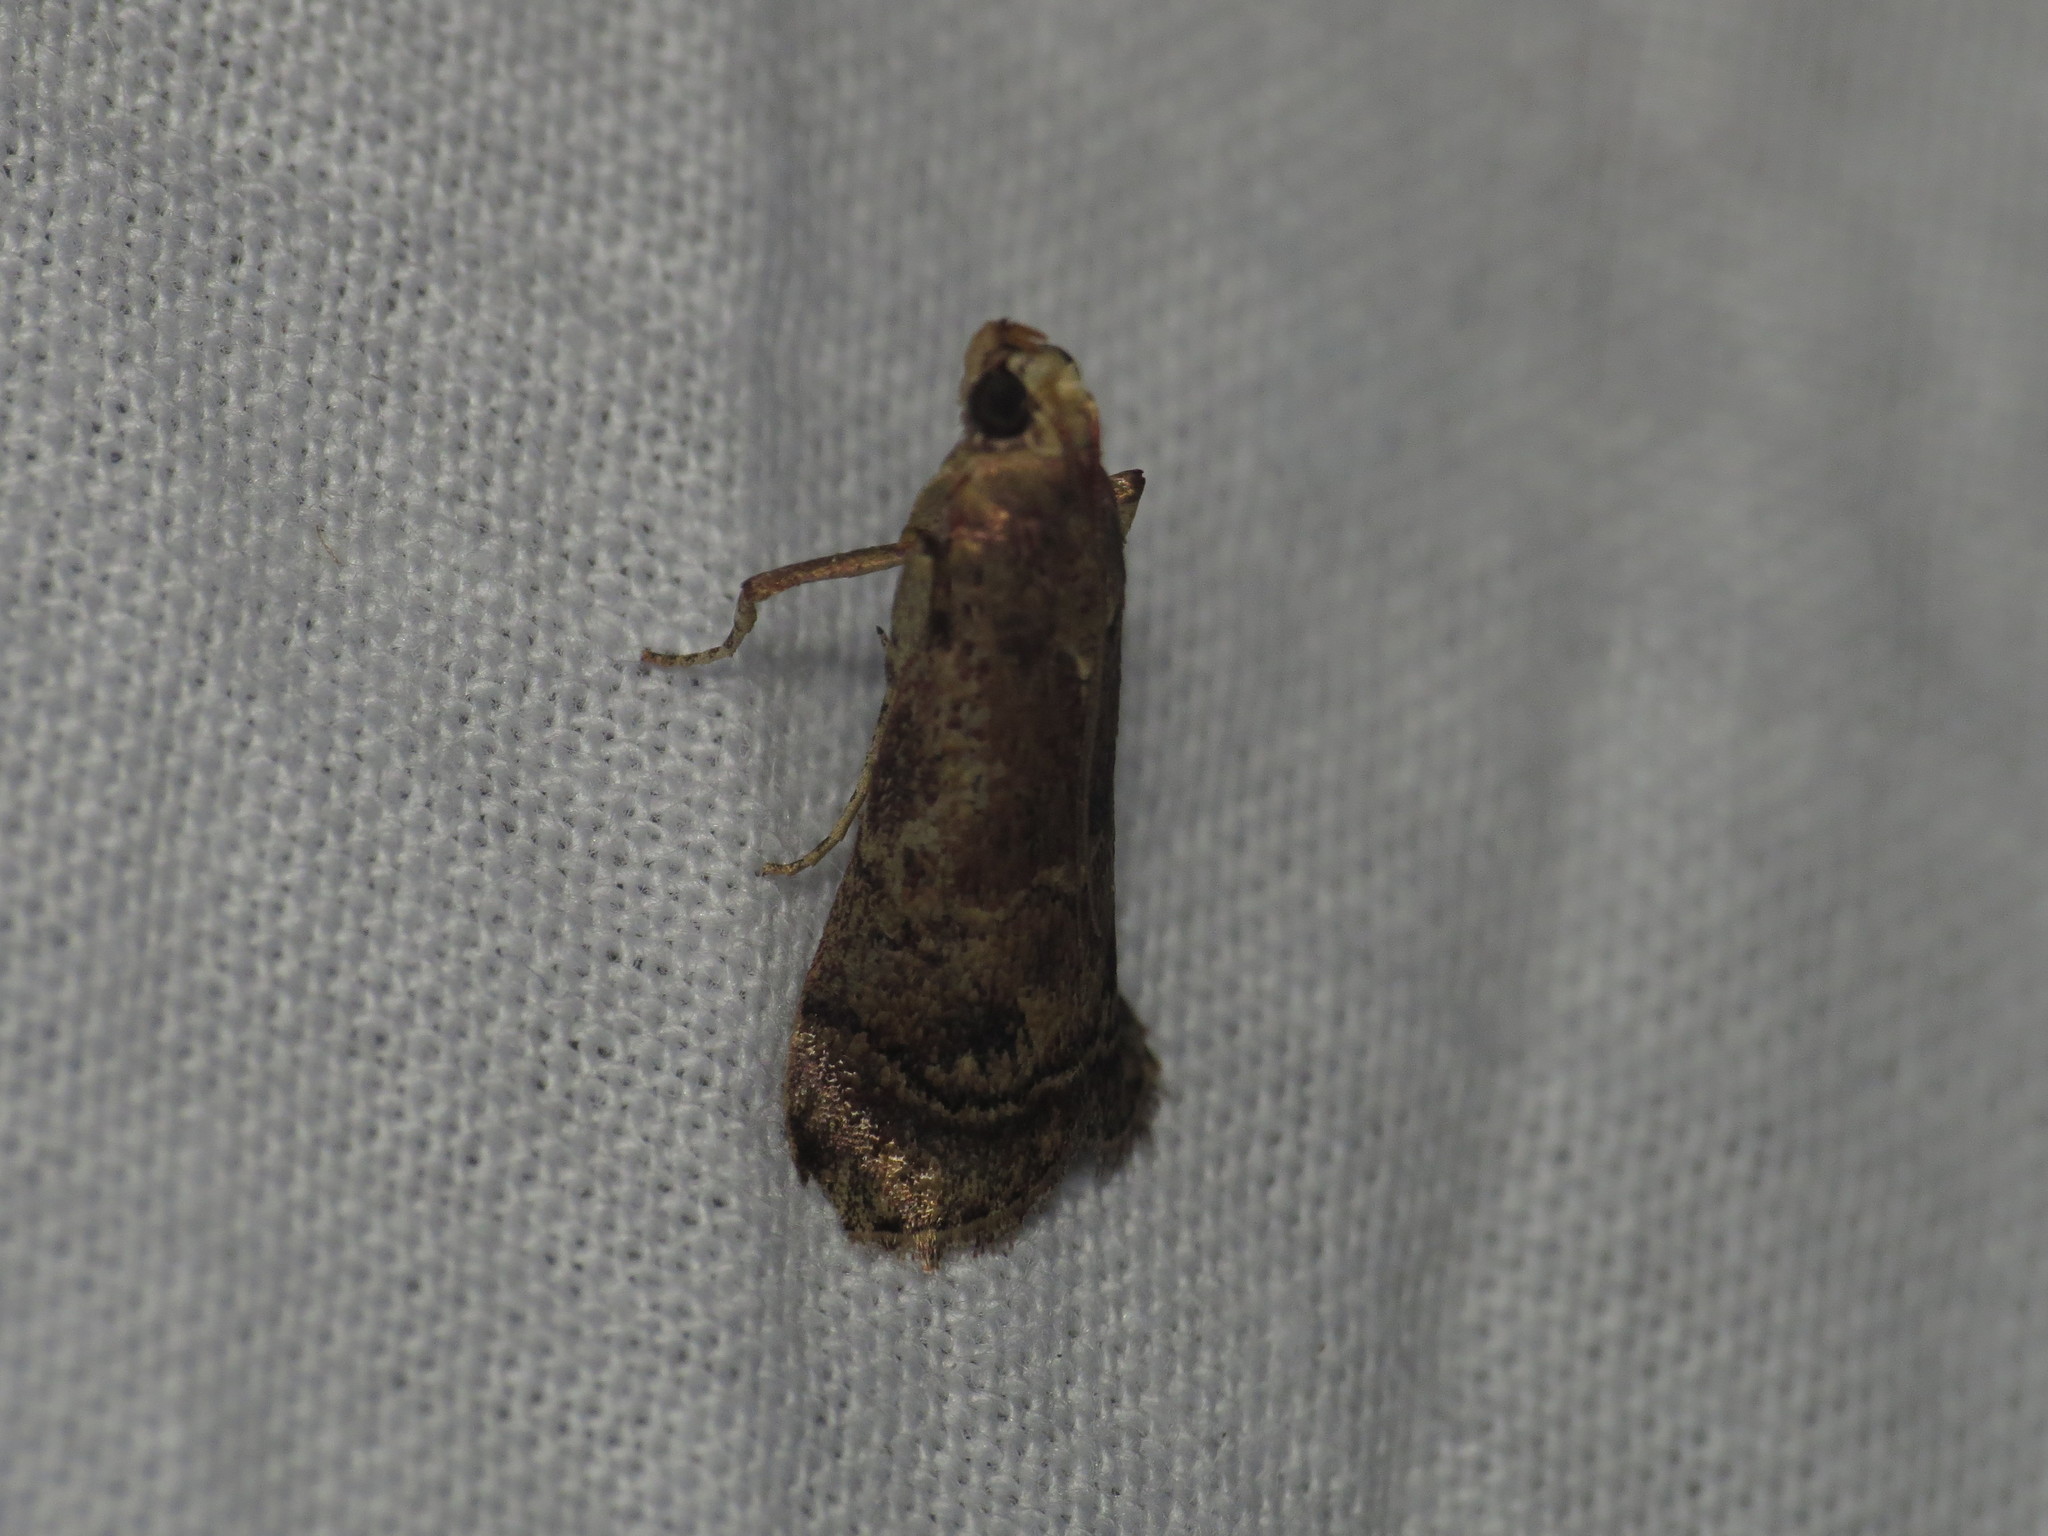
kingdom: Animalia
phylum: Arthropoda
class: Insecta
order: Lepidoptera
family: Pyralidae
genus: Cathyalia
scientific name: Cathyalia fulvella
